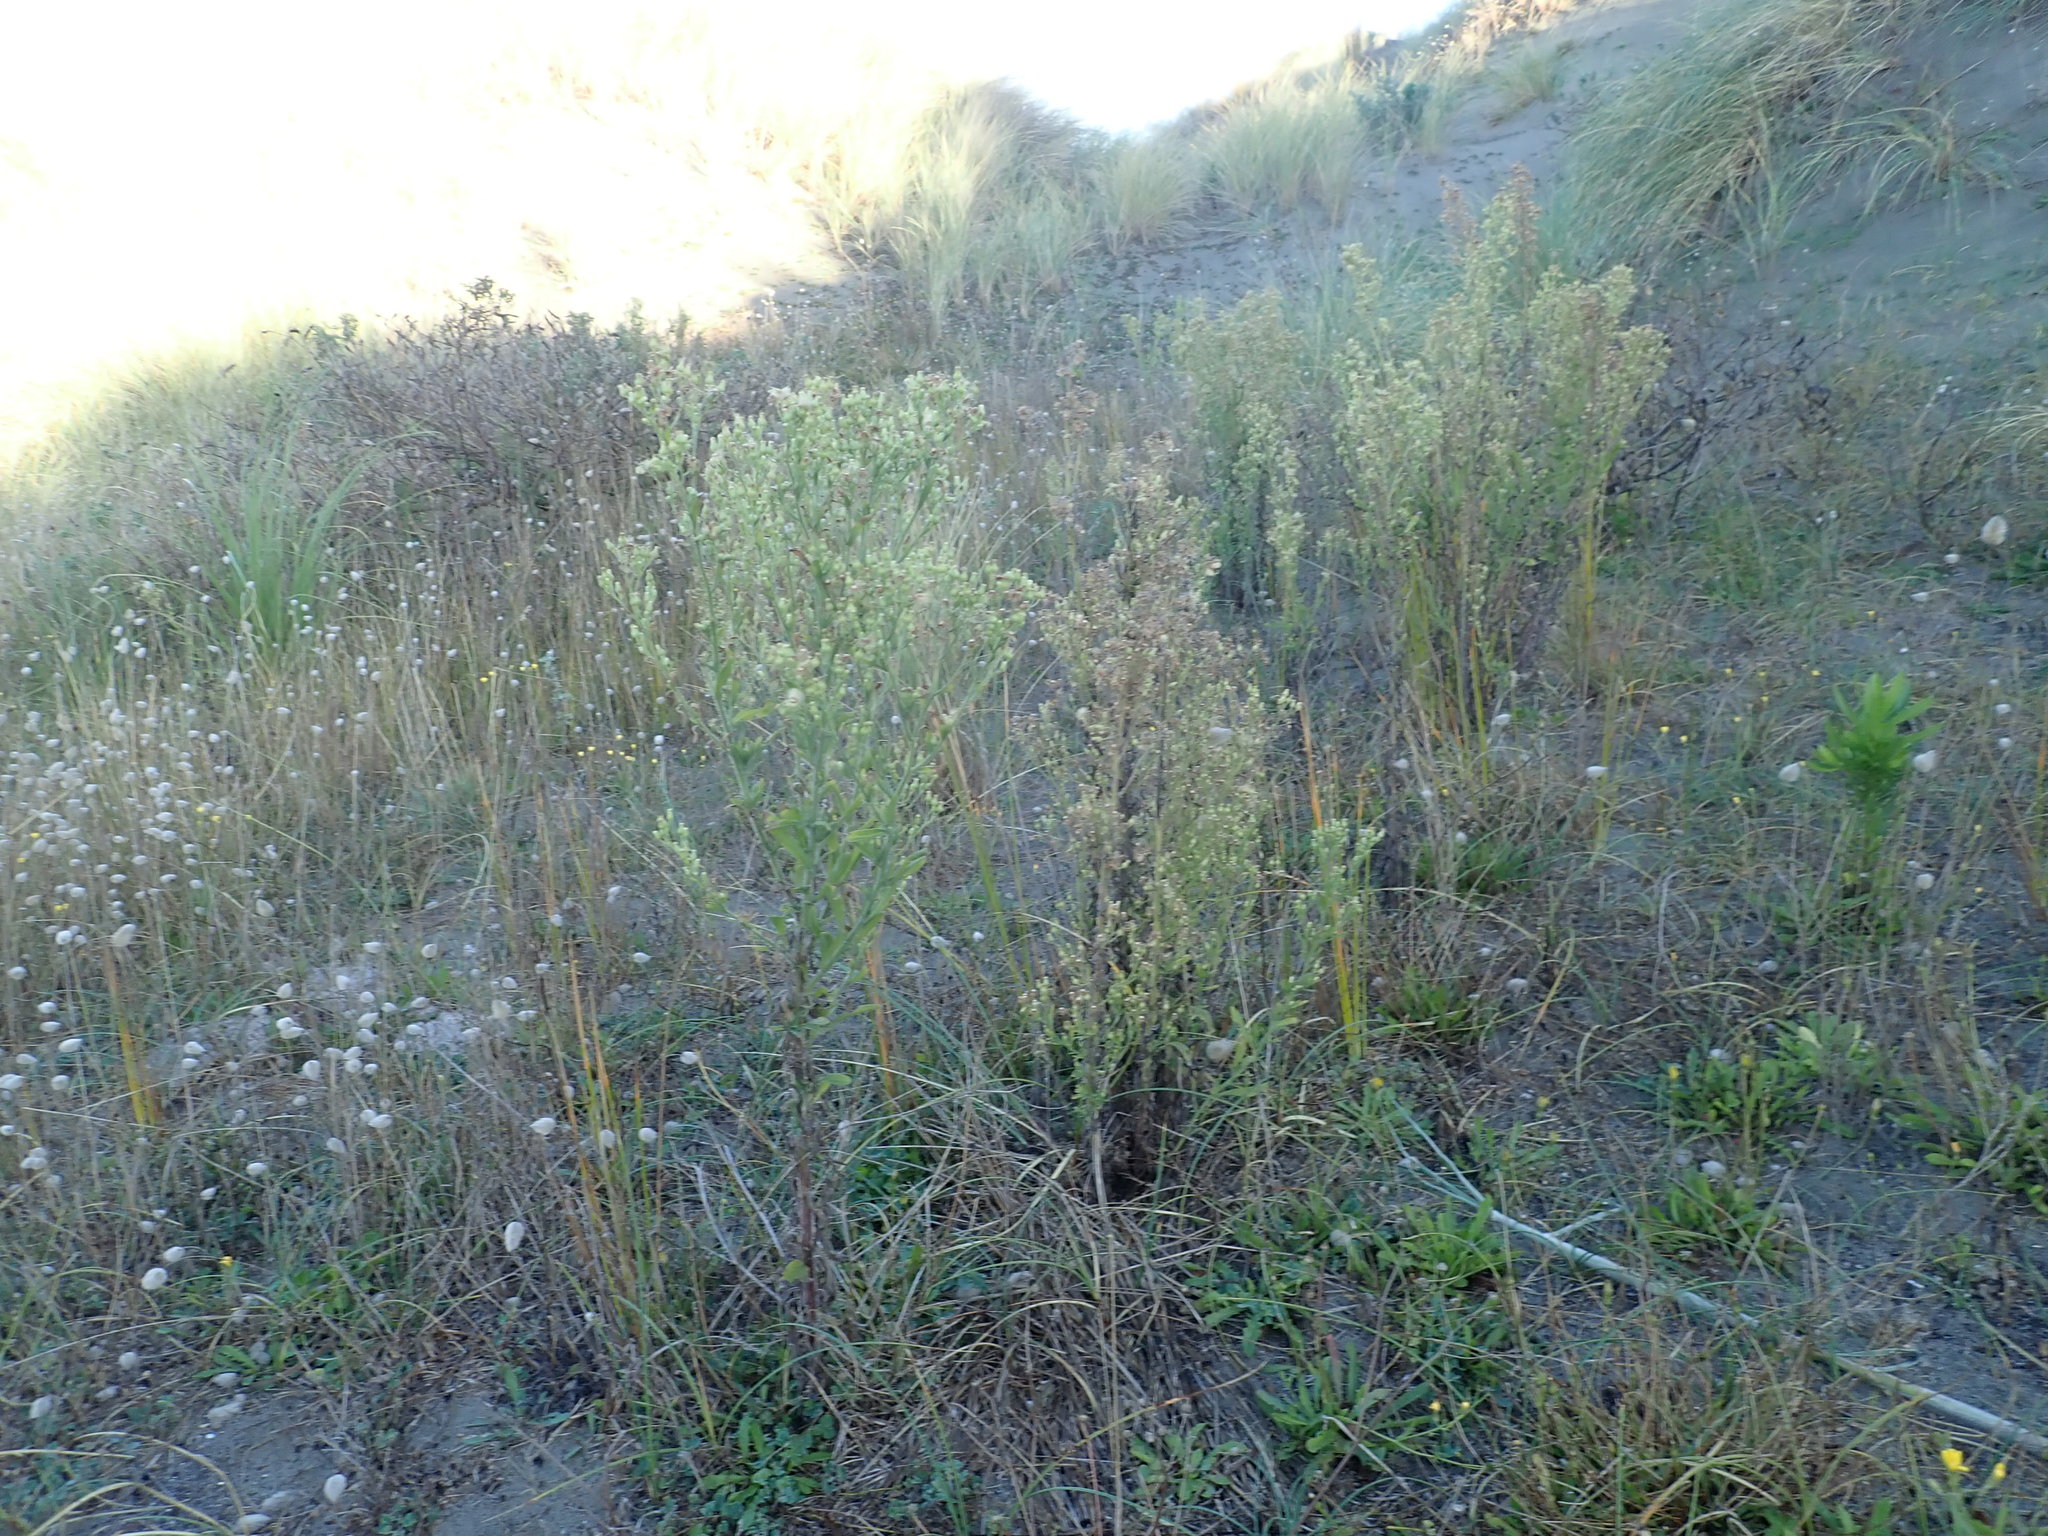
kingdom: Plantae
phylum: Tracheophyta
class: Magnoliopsida
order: Asterales
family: Asteraceae
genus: Erigeron
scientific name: Erigeron sumatrensis
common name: Daisy
